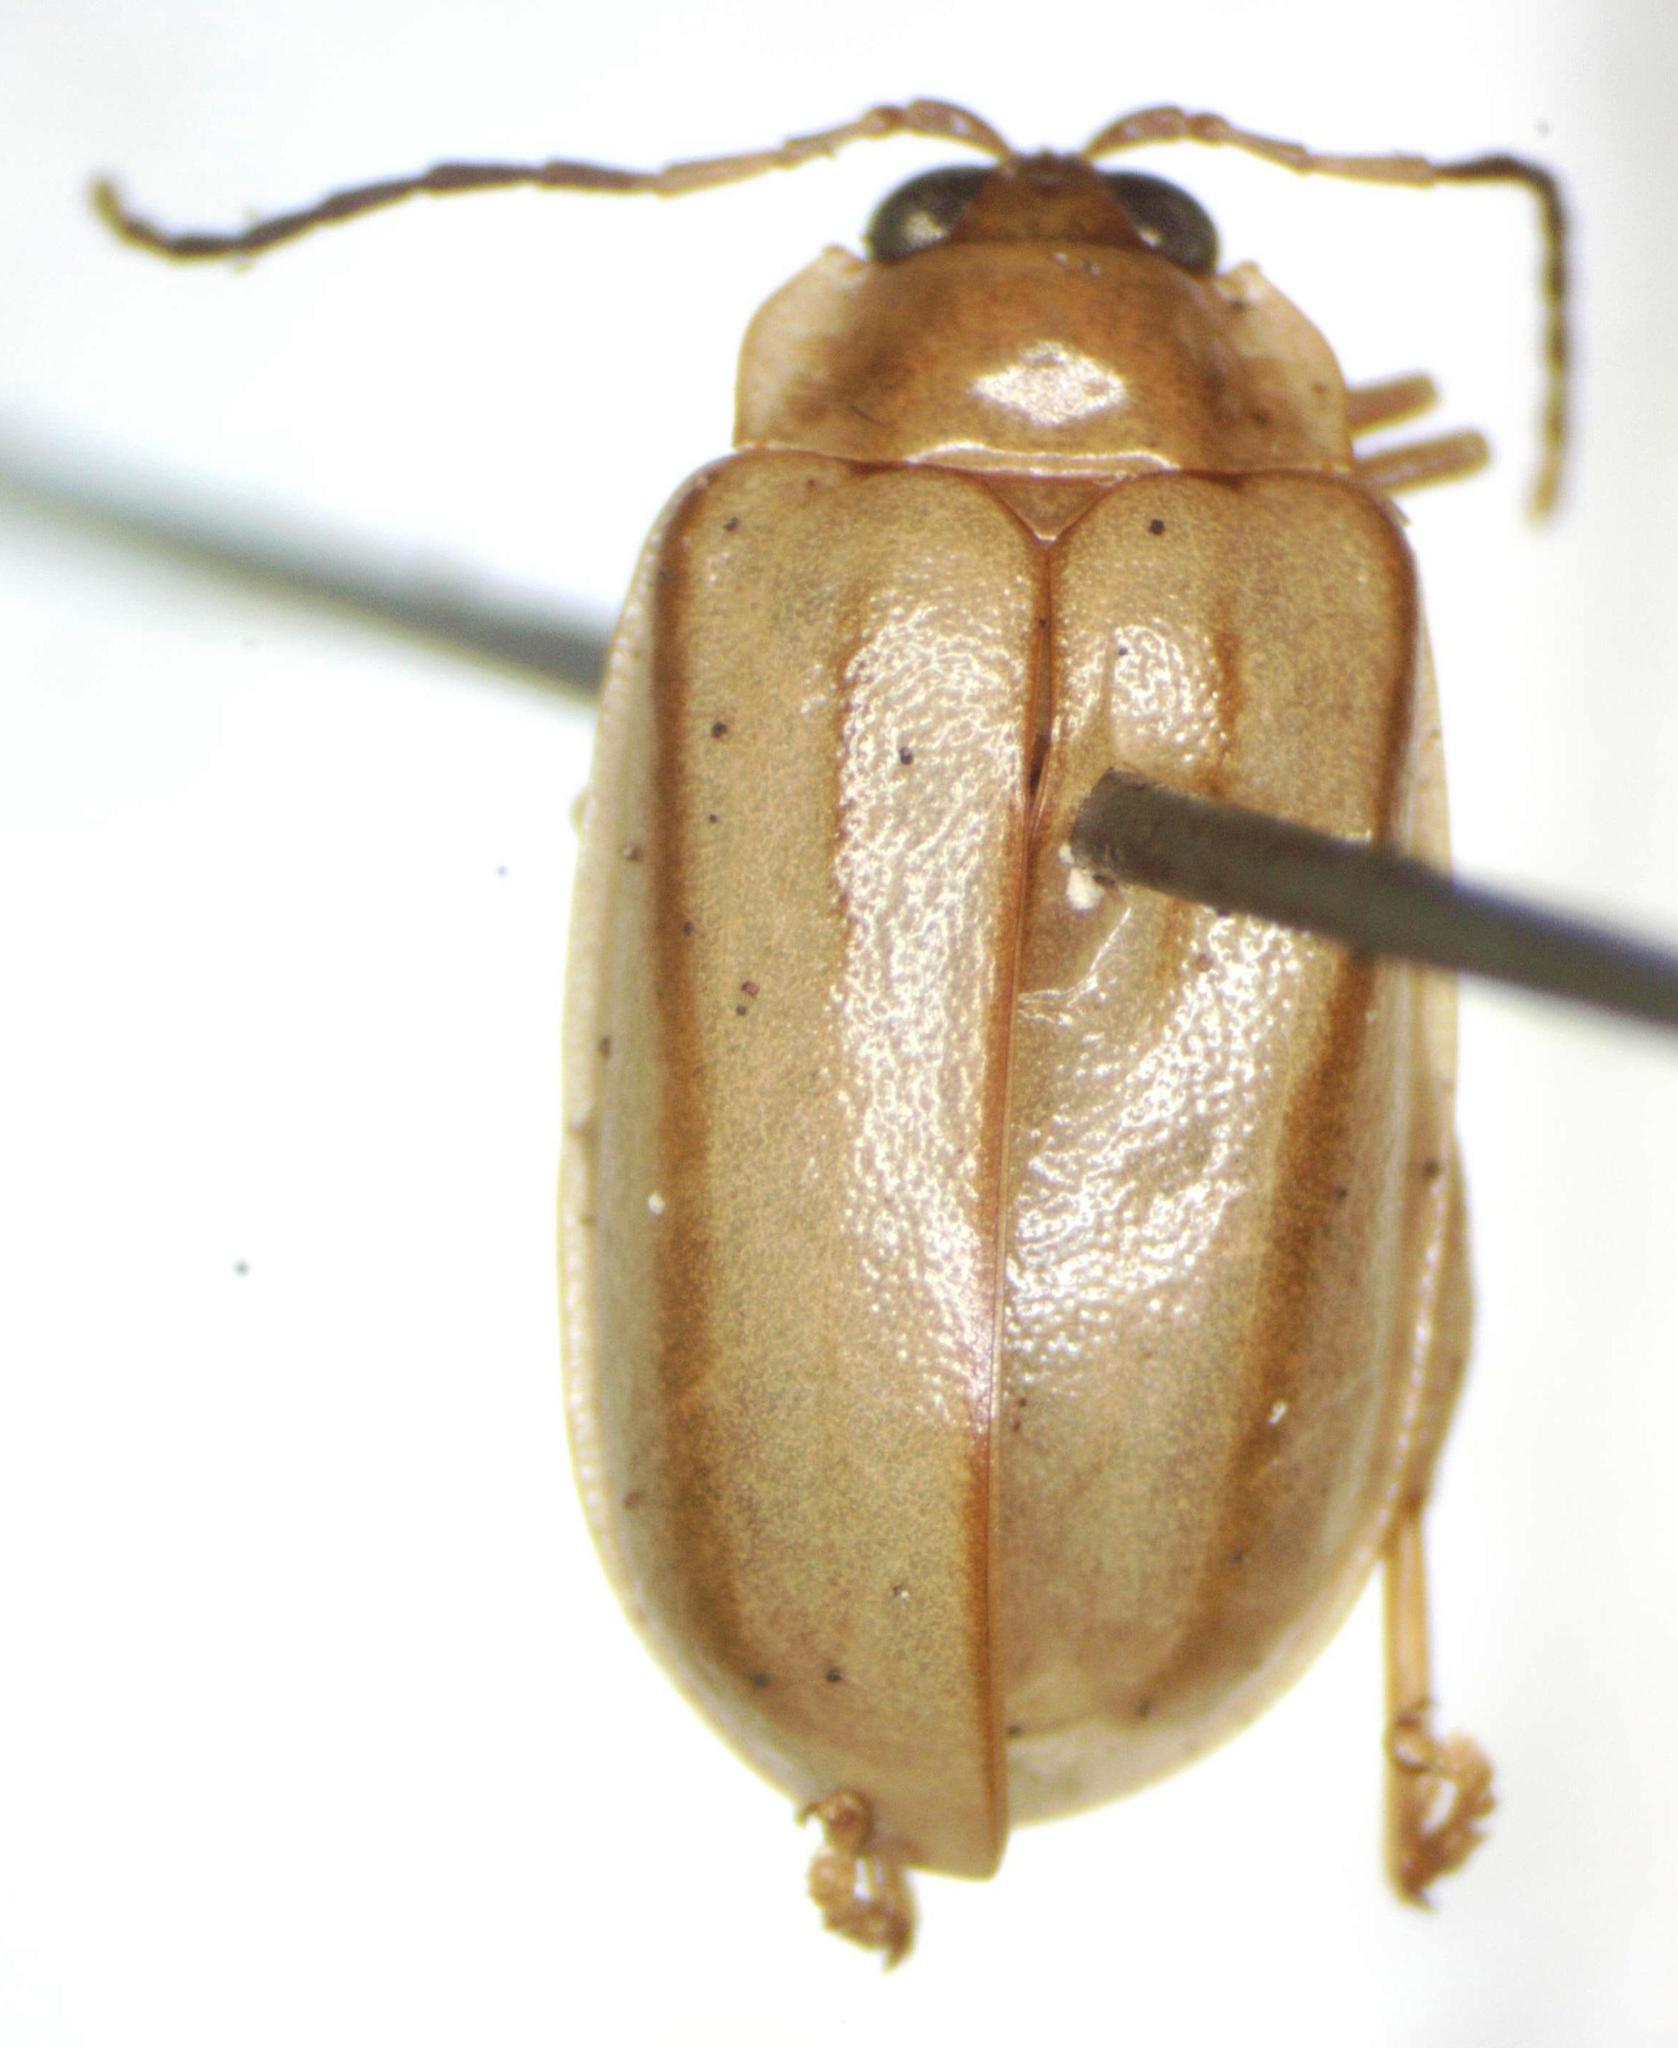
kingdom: Animalia
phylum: Arthropoda
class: Insecta
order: Coleoptera
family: Chrysomelidae
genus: Walterianella
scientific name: Walterianella
